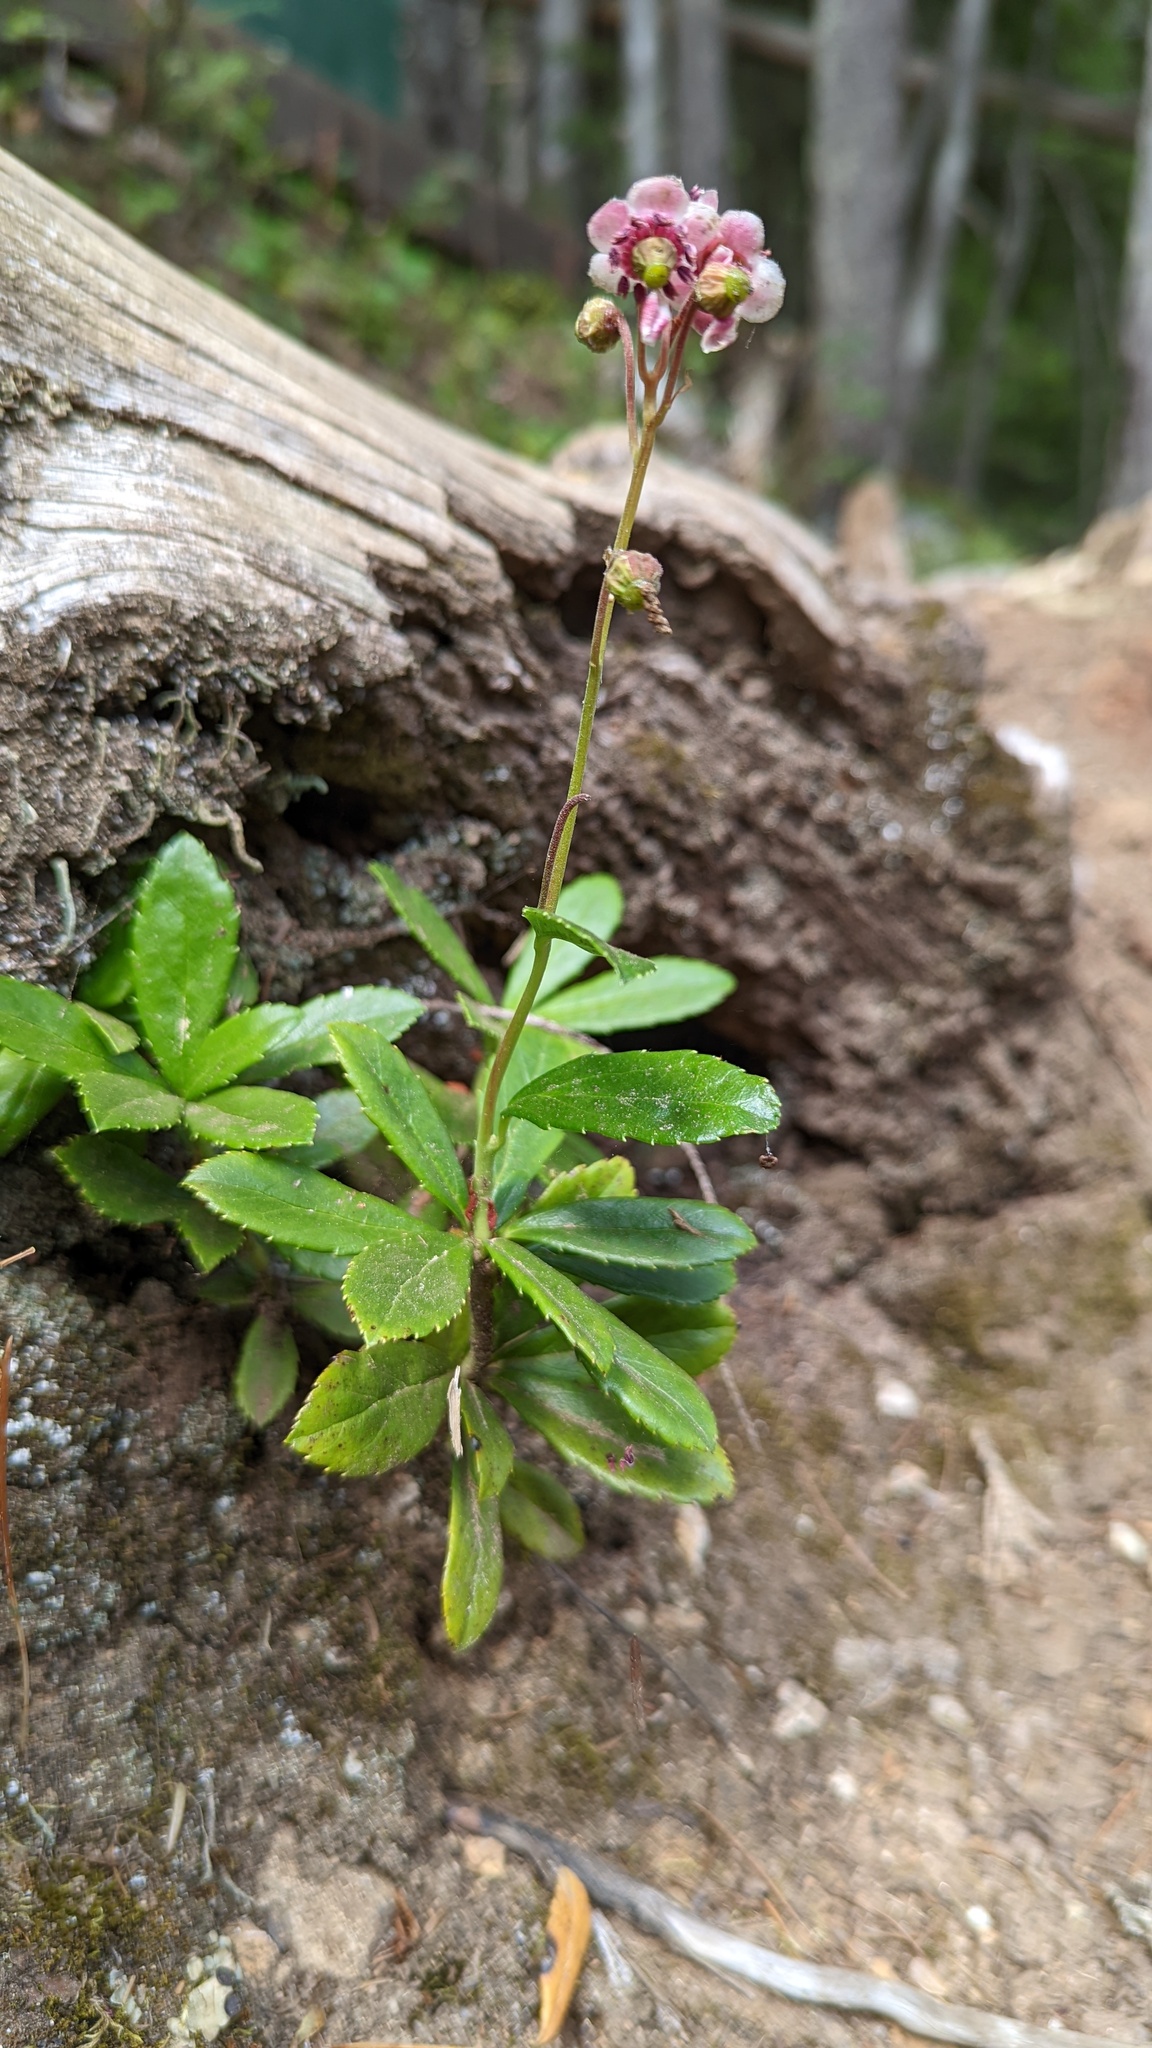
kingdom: Plantae
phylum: Tracheophyta
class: Magnoliopsida
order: Ericales
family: Ericaceae
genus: Chimaphila
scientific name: Chimaphila umbellata
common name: Pipsissewa
